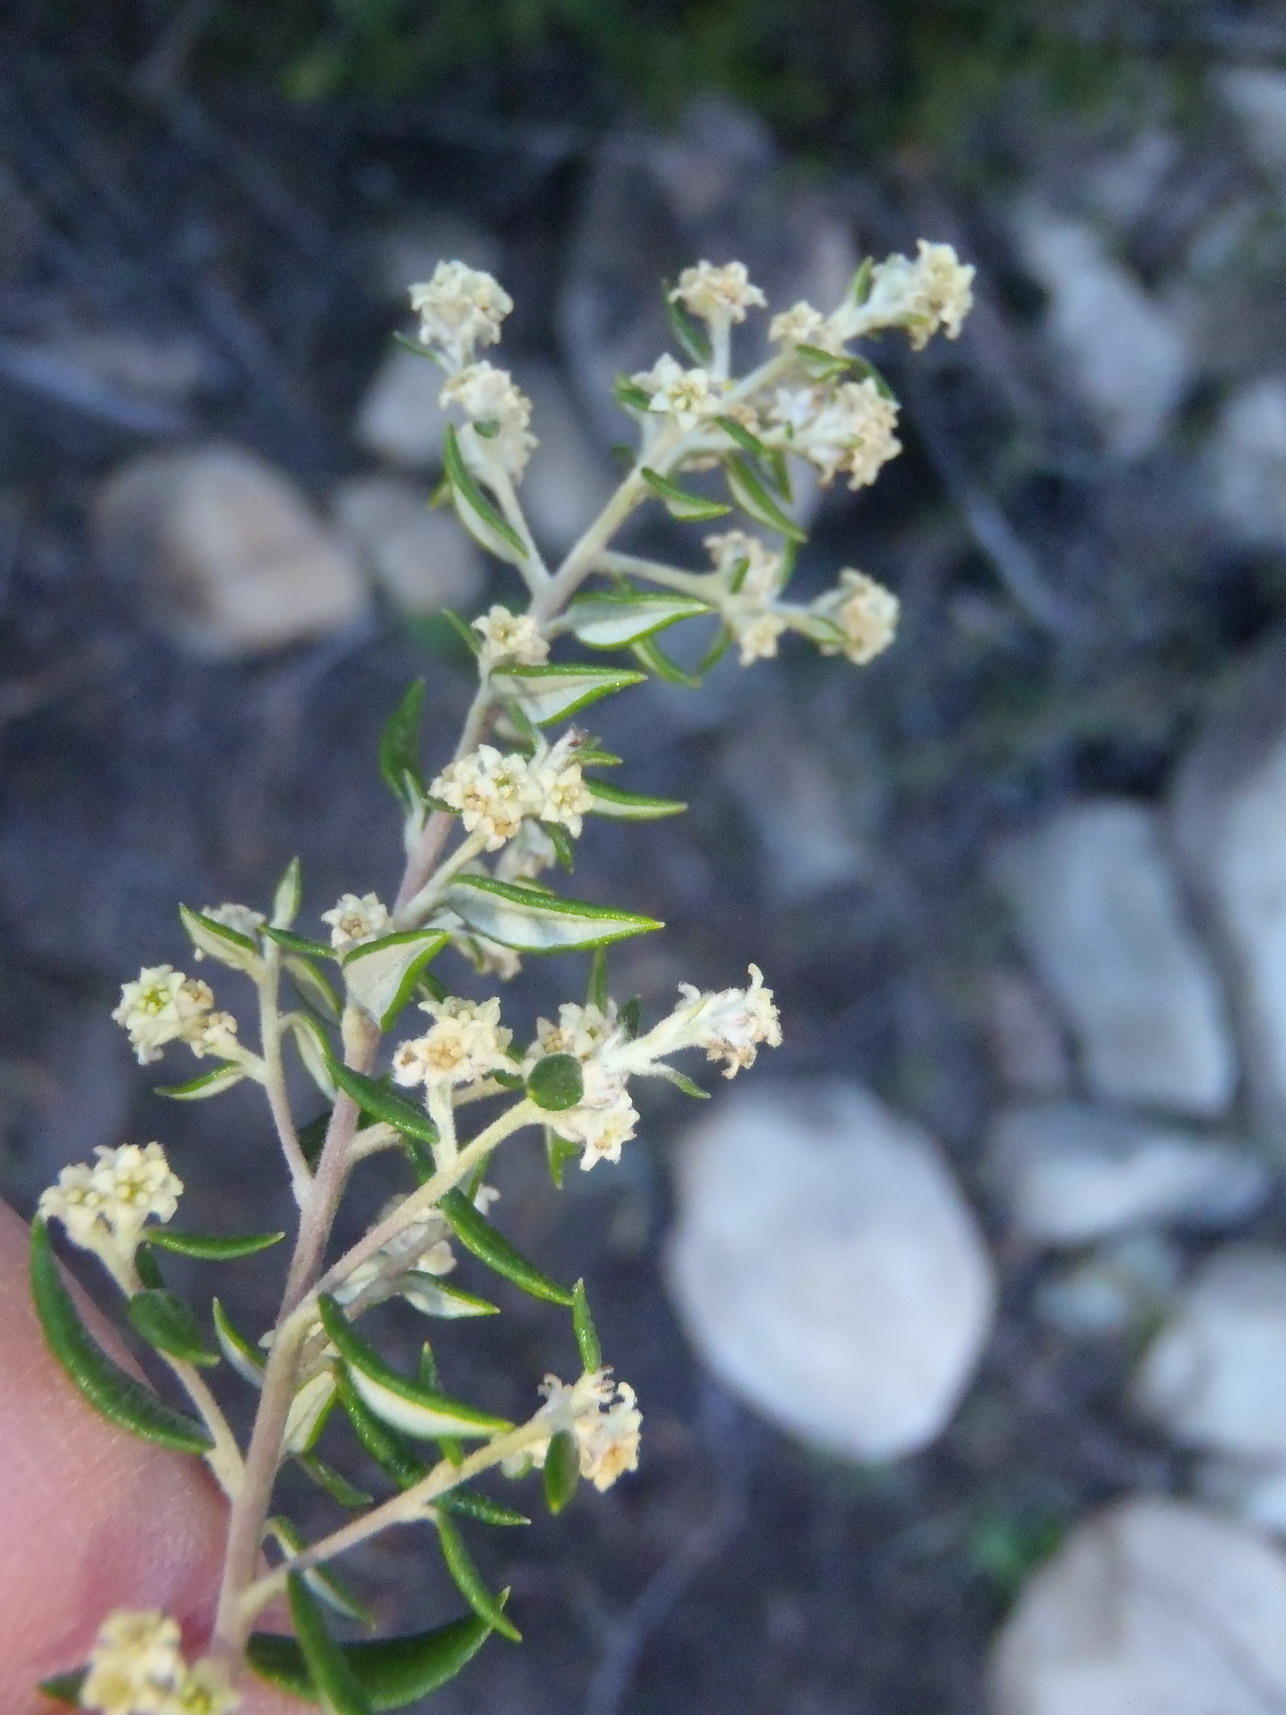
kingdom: Plantae
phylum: Tracheophyta
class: Magnoliopsida
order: Rosales
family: Rhamnaceae
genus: Phylica
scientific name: Phylica paniculata
